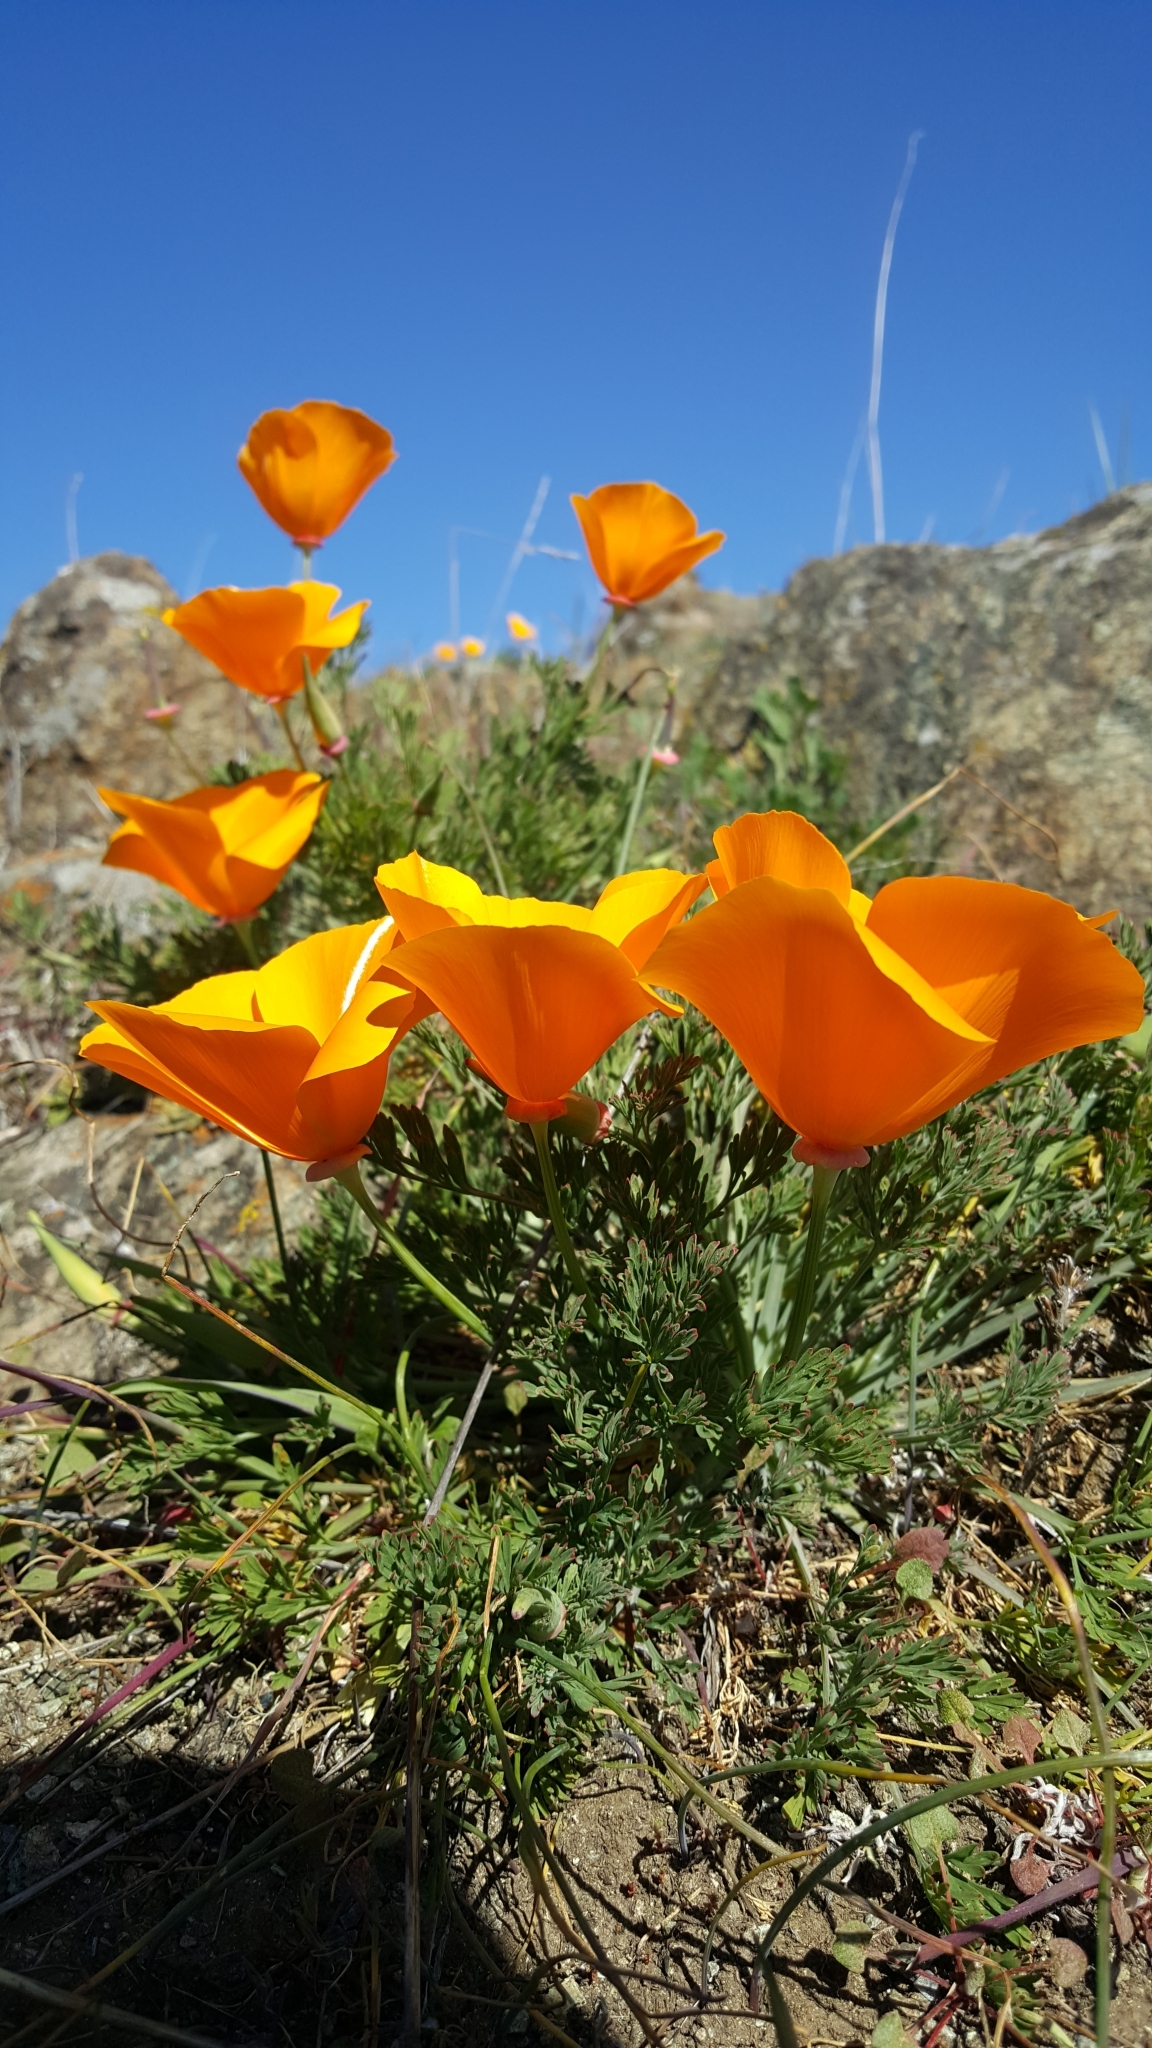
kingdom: Plantae
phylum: Tracheophyta
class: Magnoliopsida
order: Ranunculales
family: Papaveraceae
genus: Eschscholzia
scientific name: Eschscholzia californica
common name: California poppy
